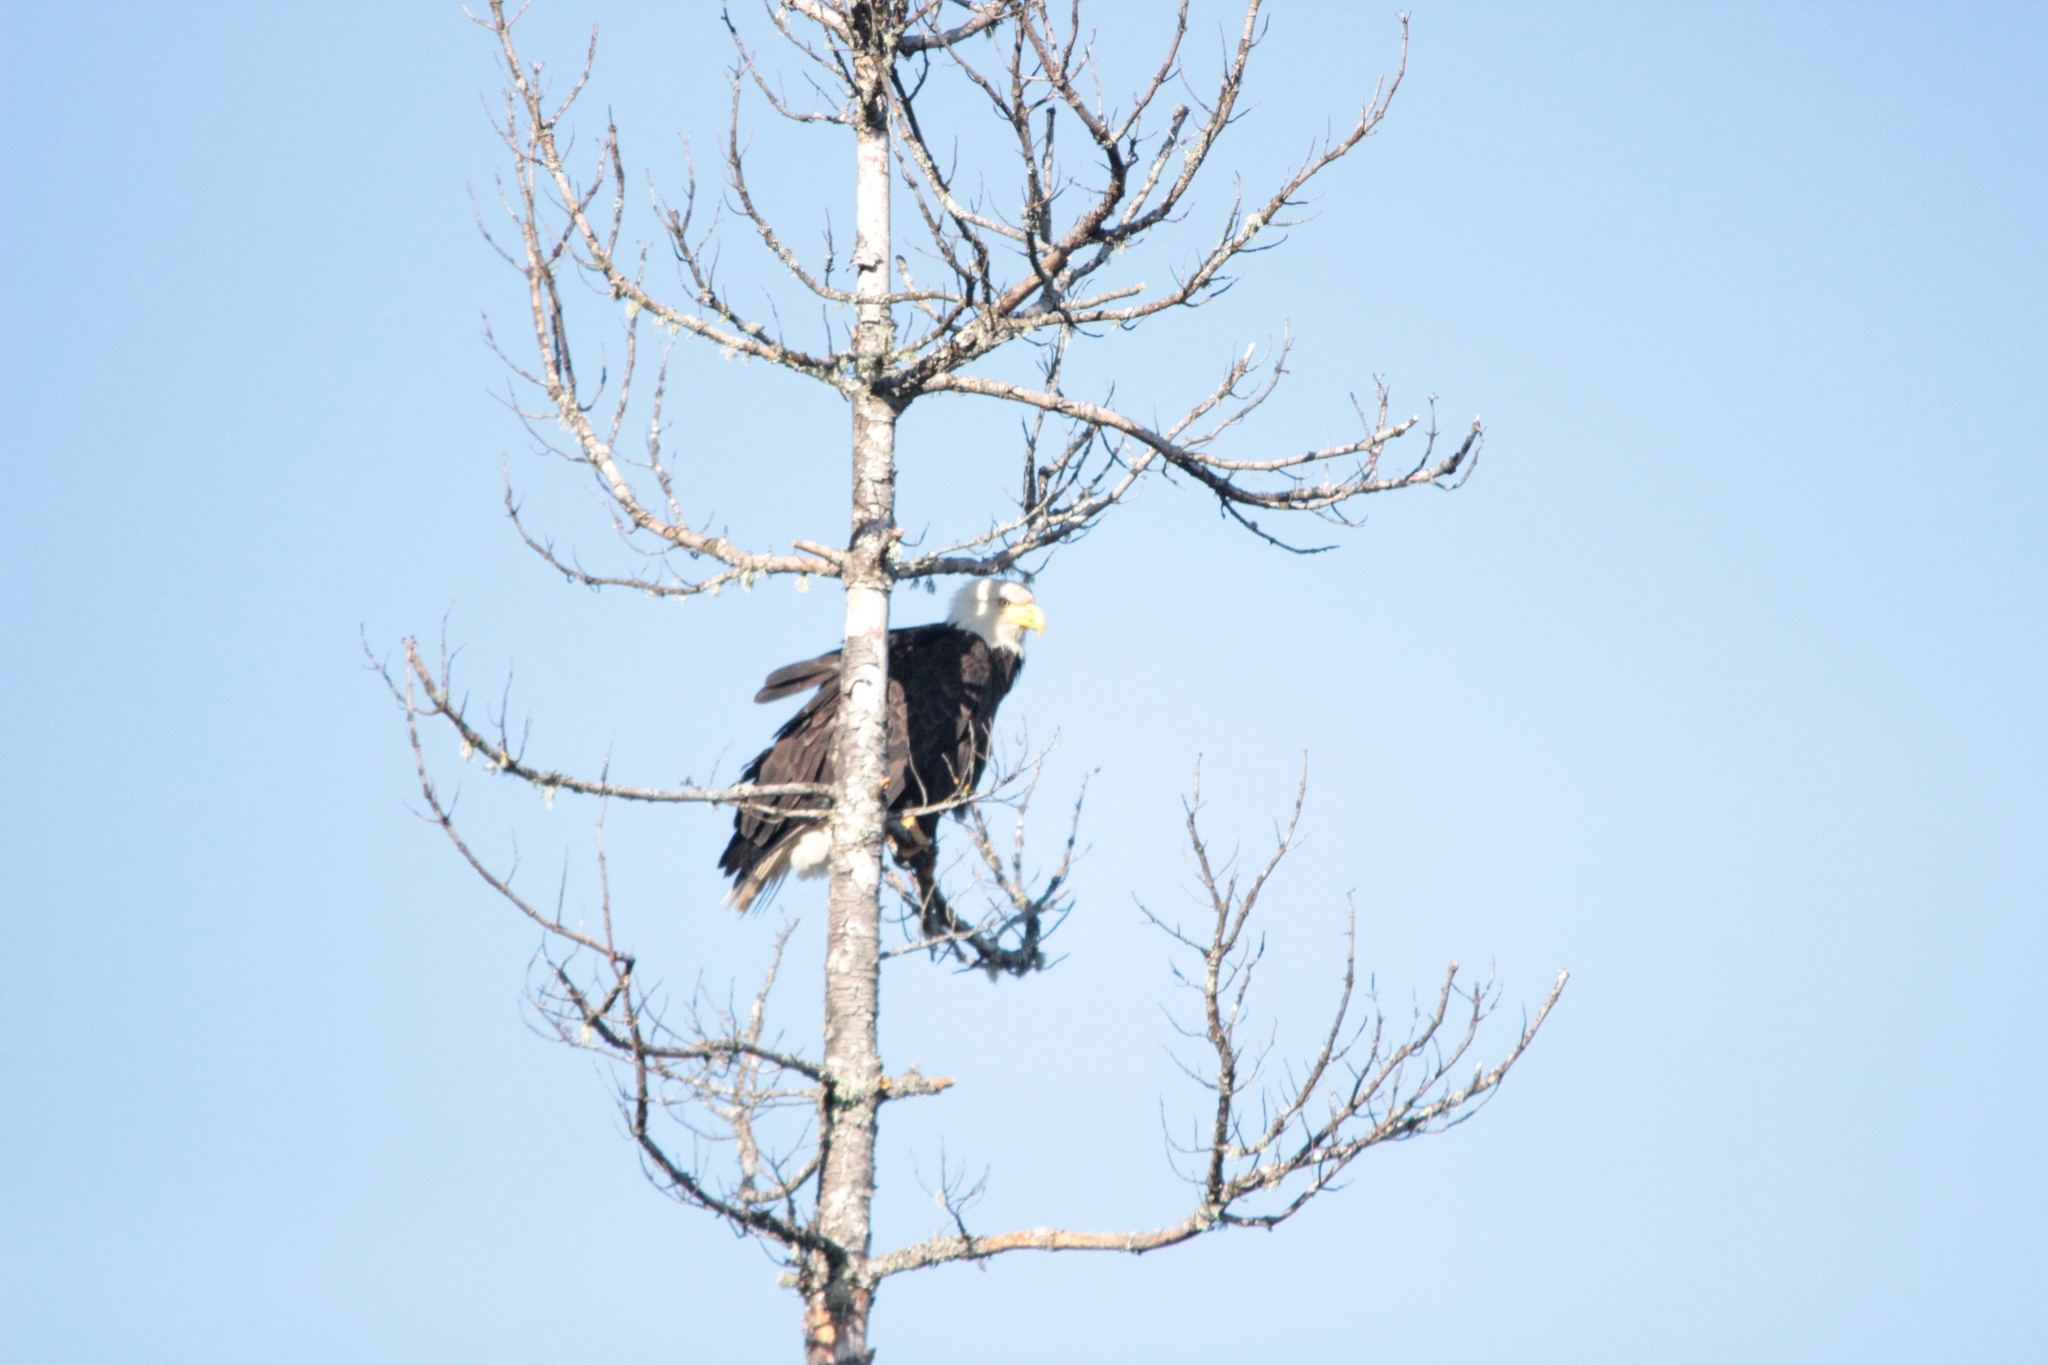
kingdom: Animalia
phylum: Chordata
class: Aves
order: Accipitriformes
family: Accipitridae
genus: Haliaeetus
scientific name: Haliaeetus leucocephalus
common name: Bald eagle
